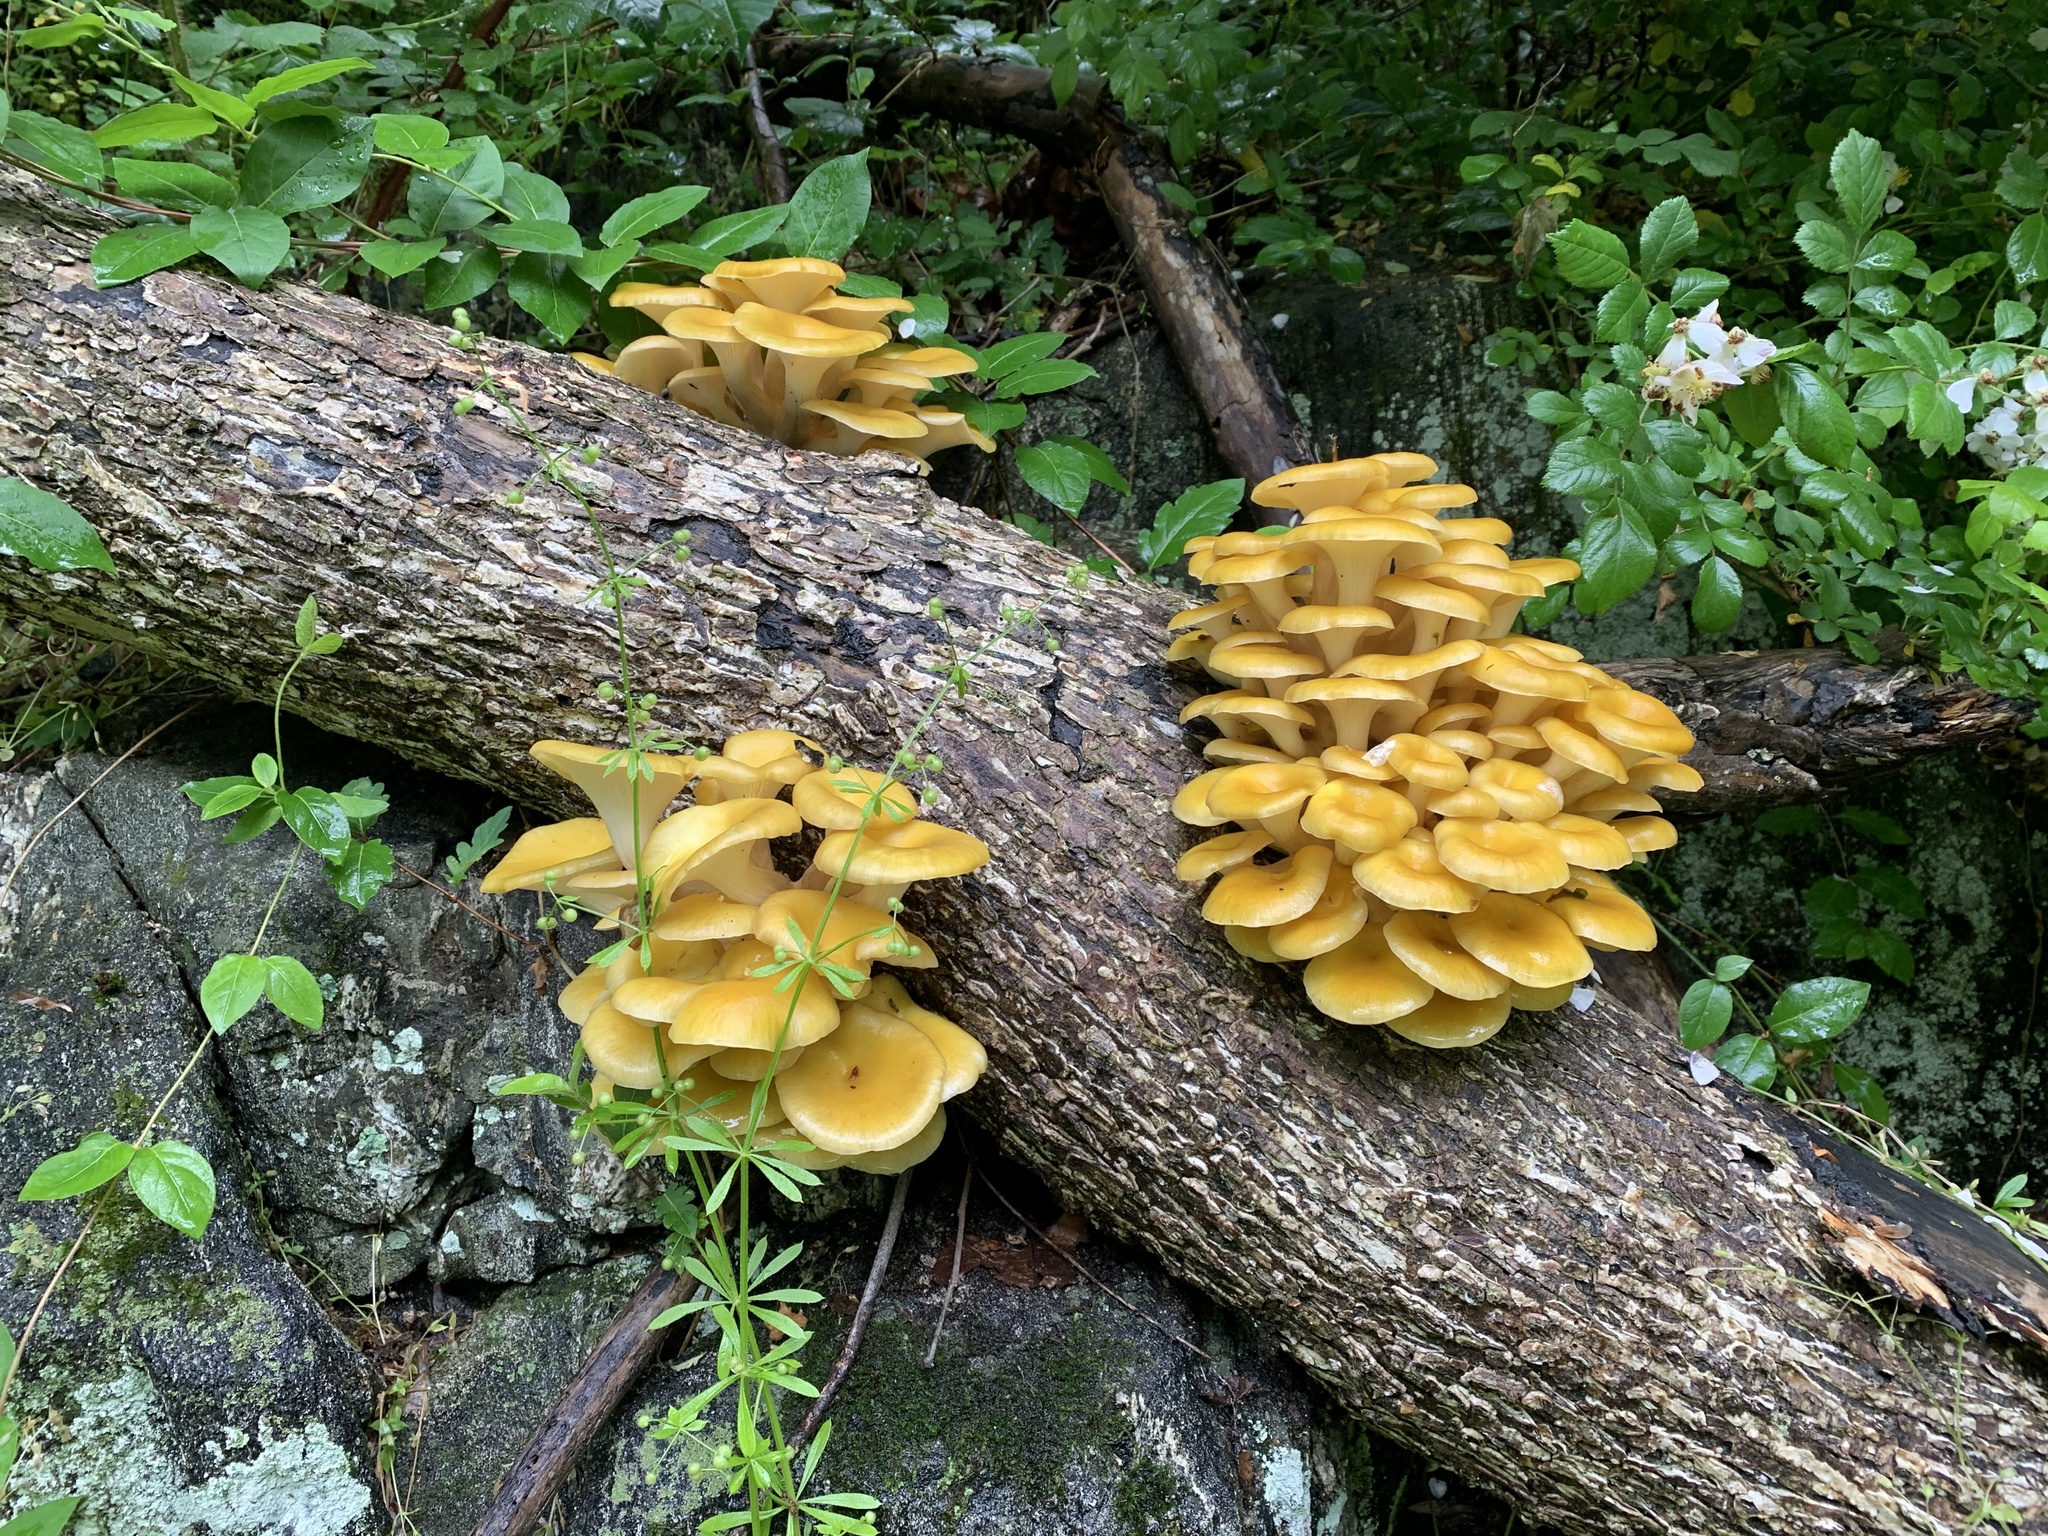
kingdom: Fungi
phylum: Basidiomycota
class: Agaricomycetes
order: Agaricales
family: Pleurotaceae
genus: Pleurotus
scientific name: Pleurotus citrinopileatus
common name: Golden oyster mushroom
